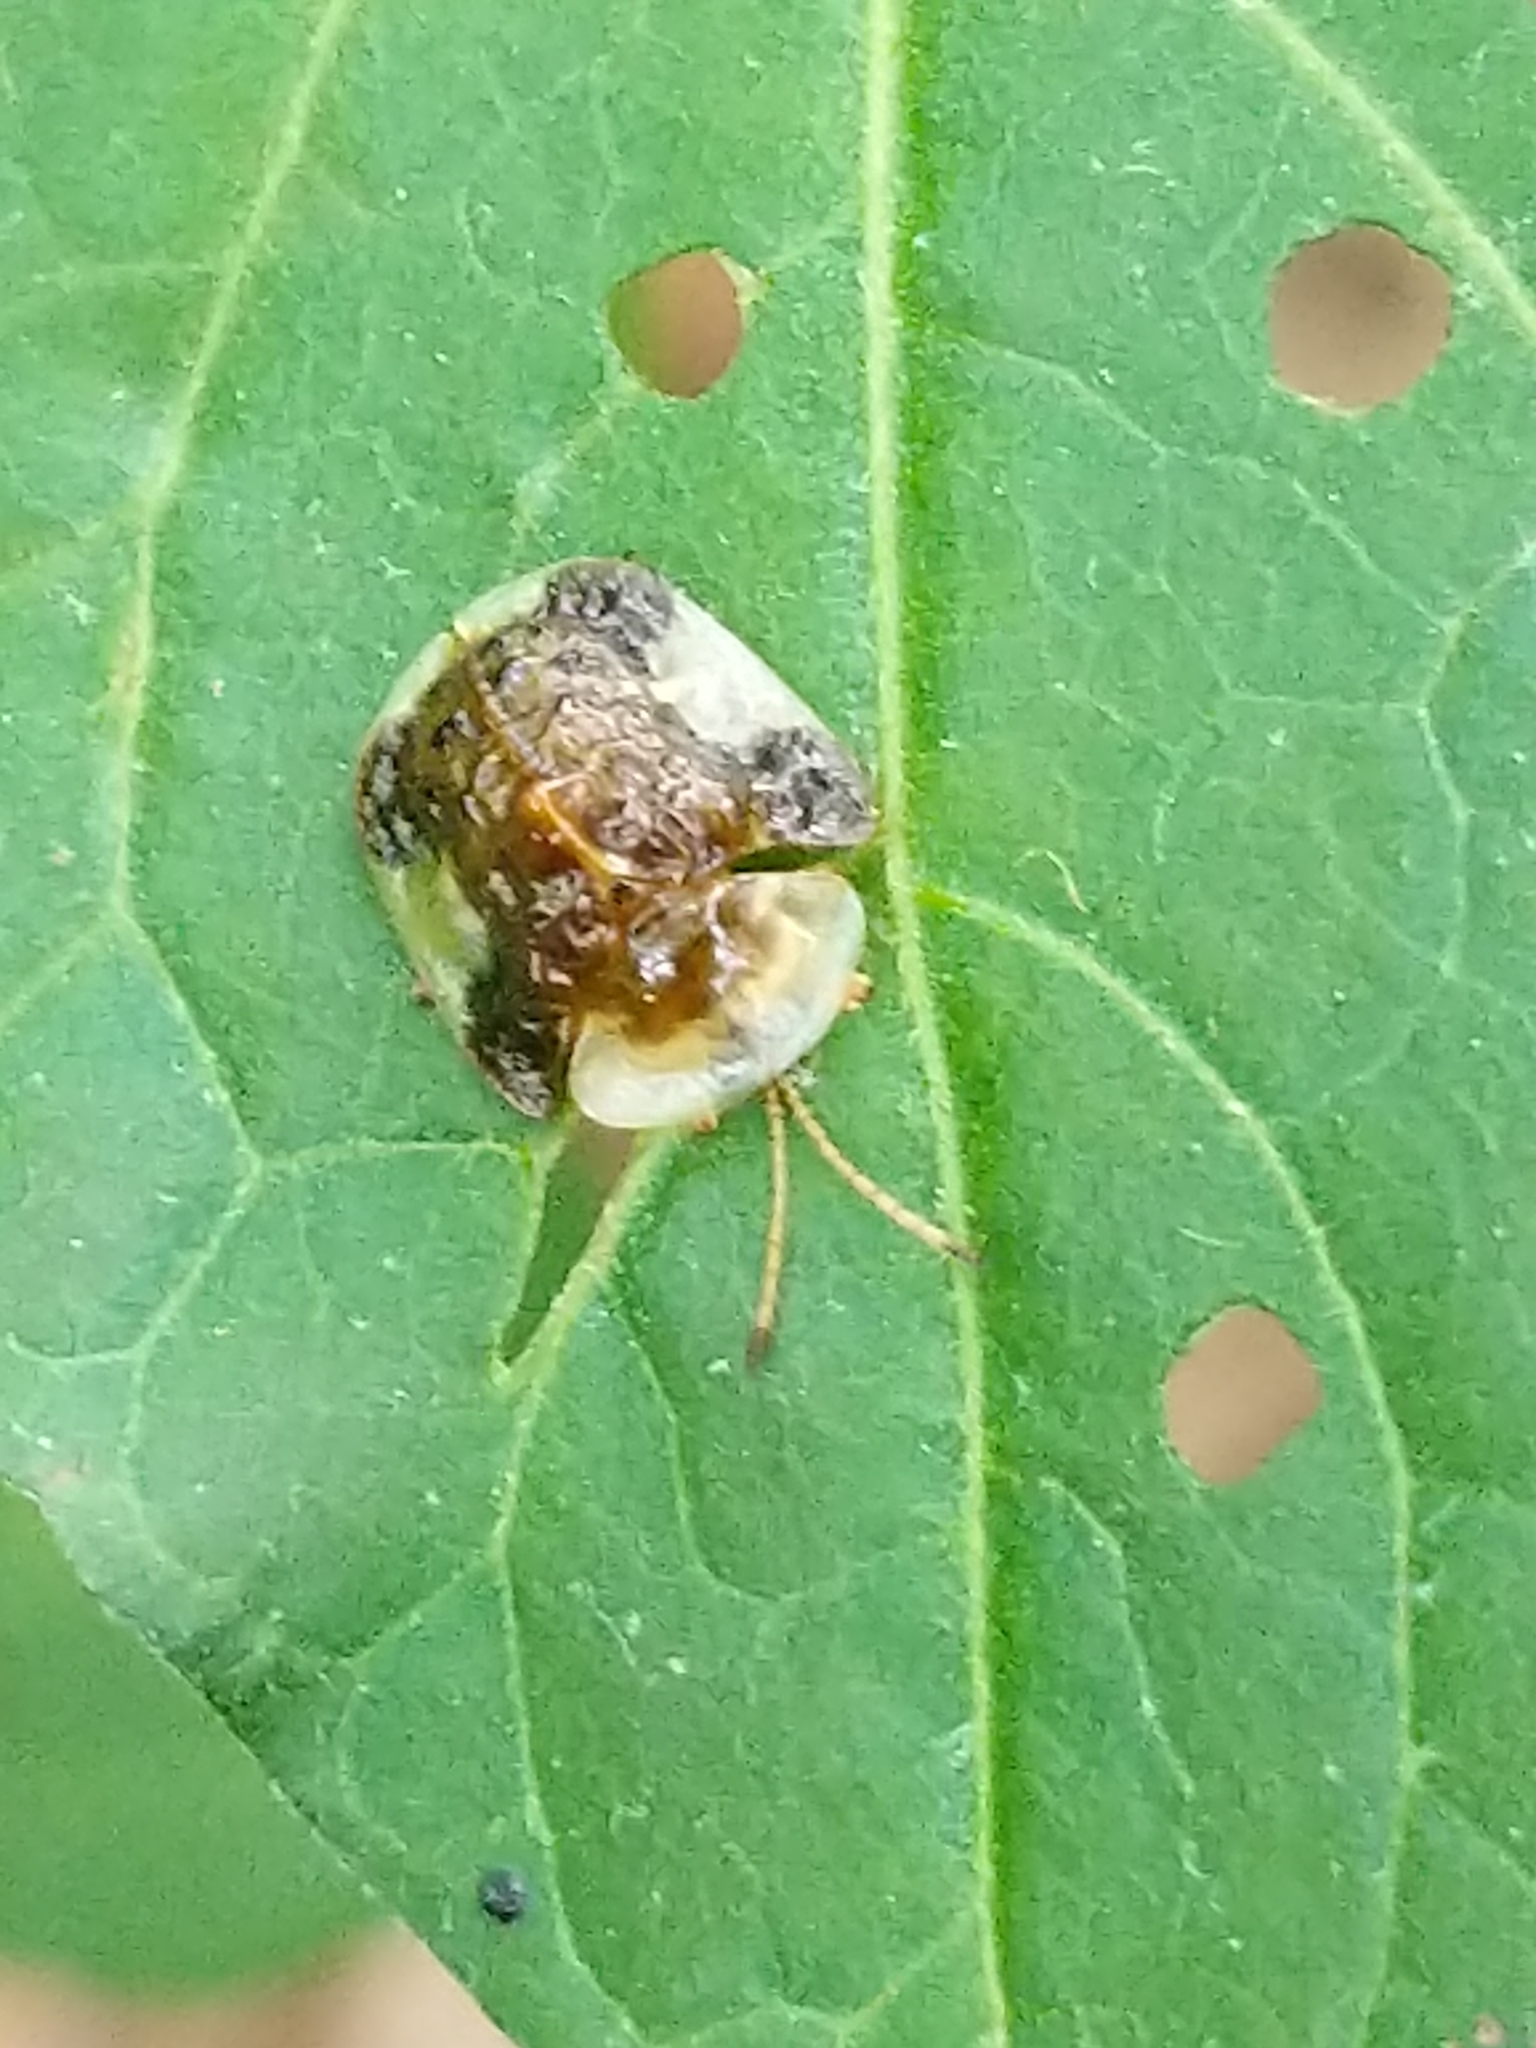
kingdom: Animalia
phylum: Arthropoda
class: Insecta
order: Coleoptera
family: Chrysomelidae
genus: Helocassis
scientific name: Helocassis clavata
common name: Clavate tortoise beetle
